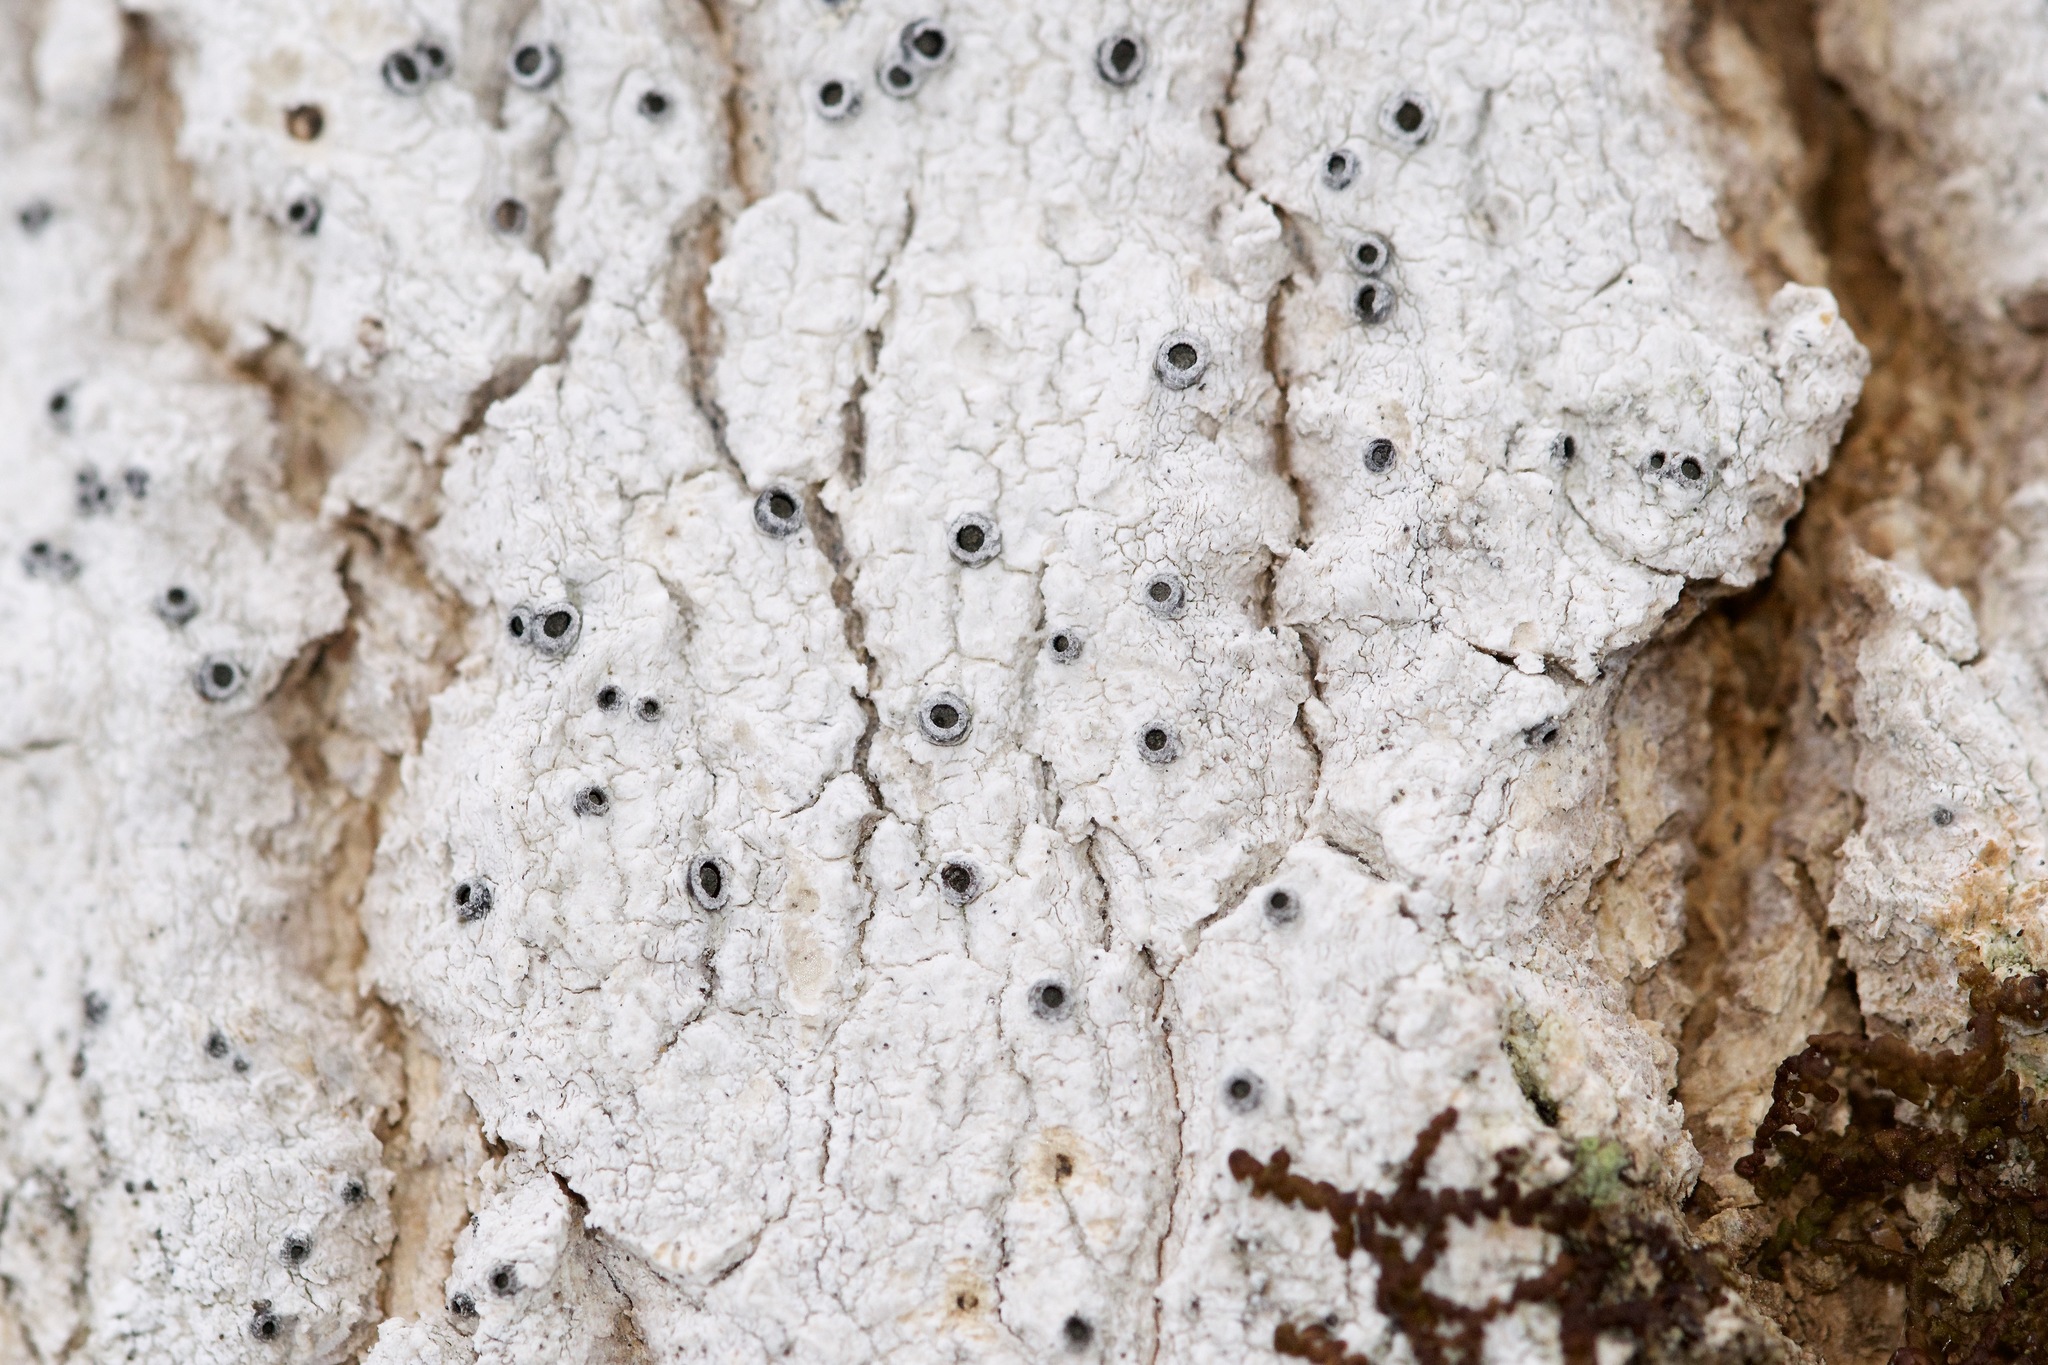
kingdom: Fungi
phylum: Ascomycota
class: Lecanoromycetes
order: Ostropales
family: Stictidaceae
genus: Stictis
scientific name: Stictis urceolata
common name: Can-of-worms lichen
